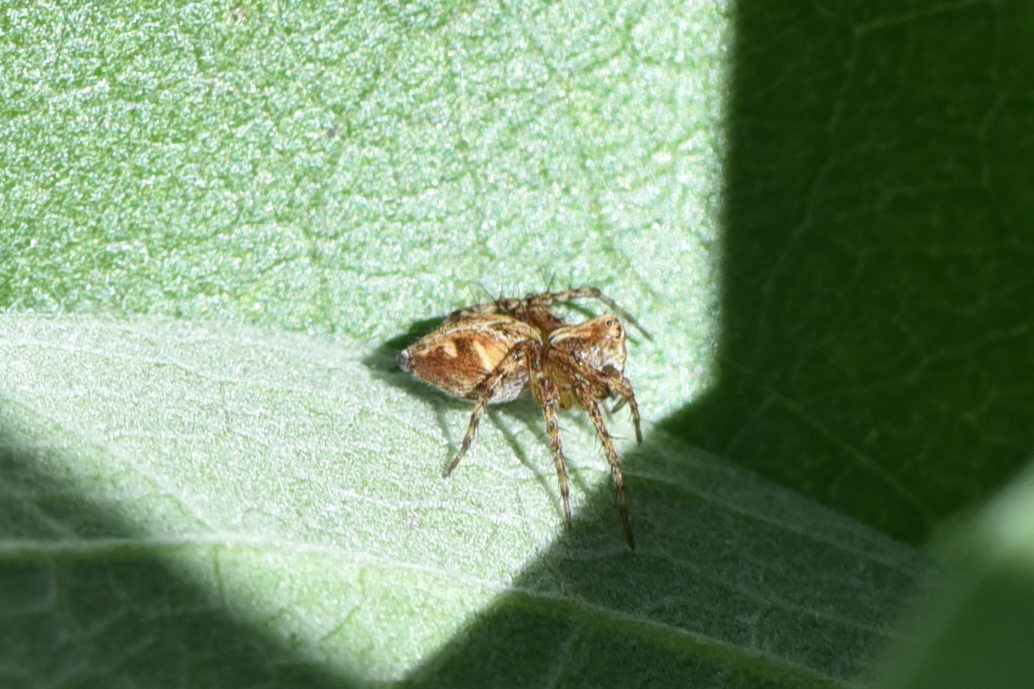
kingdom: Animalia
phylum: Arthropoda
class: Arachnida
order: Araneae
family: Oxyopidae
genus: Oxyopes
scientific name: Oxyopes scalaris
